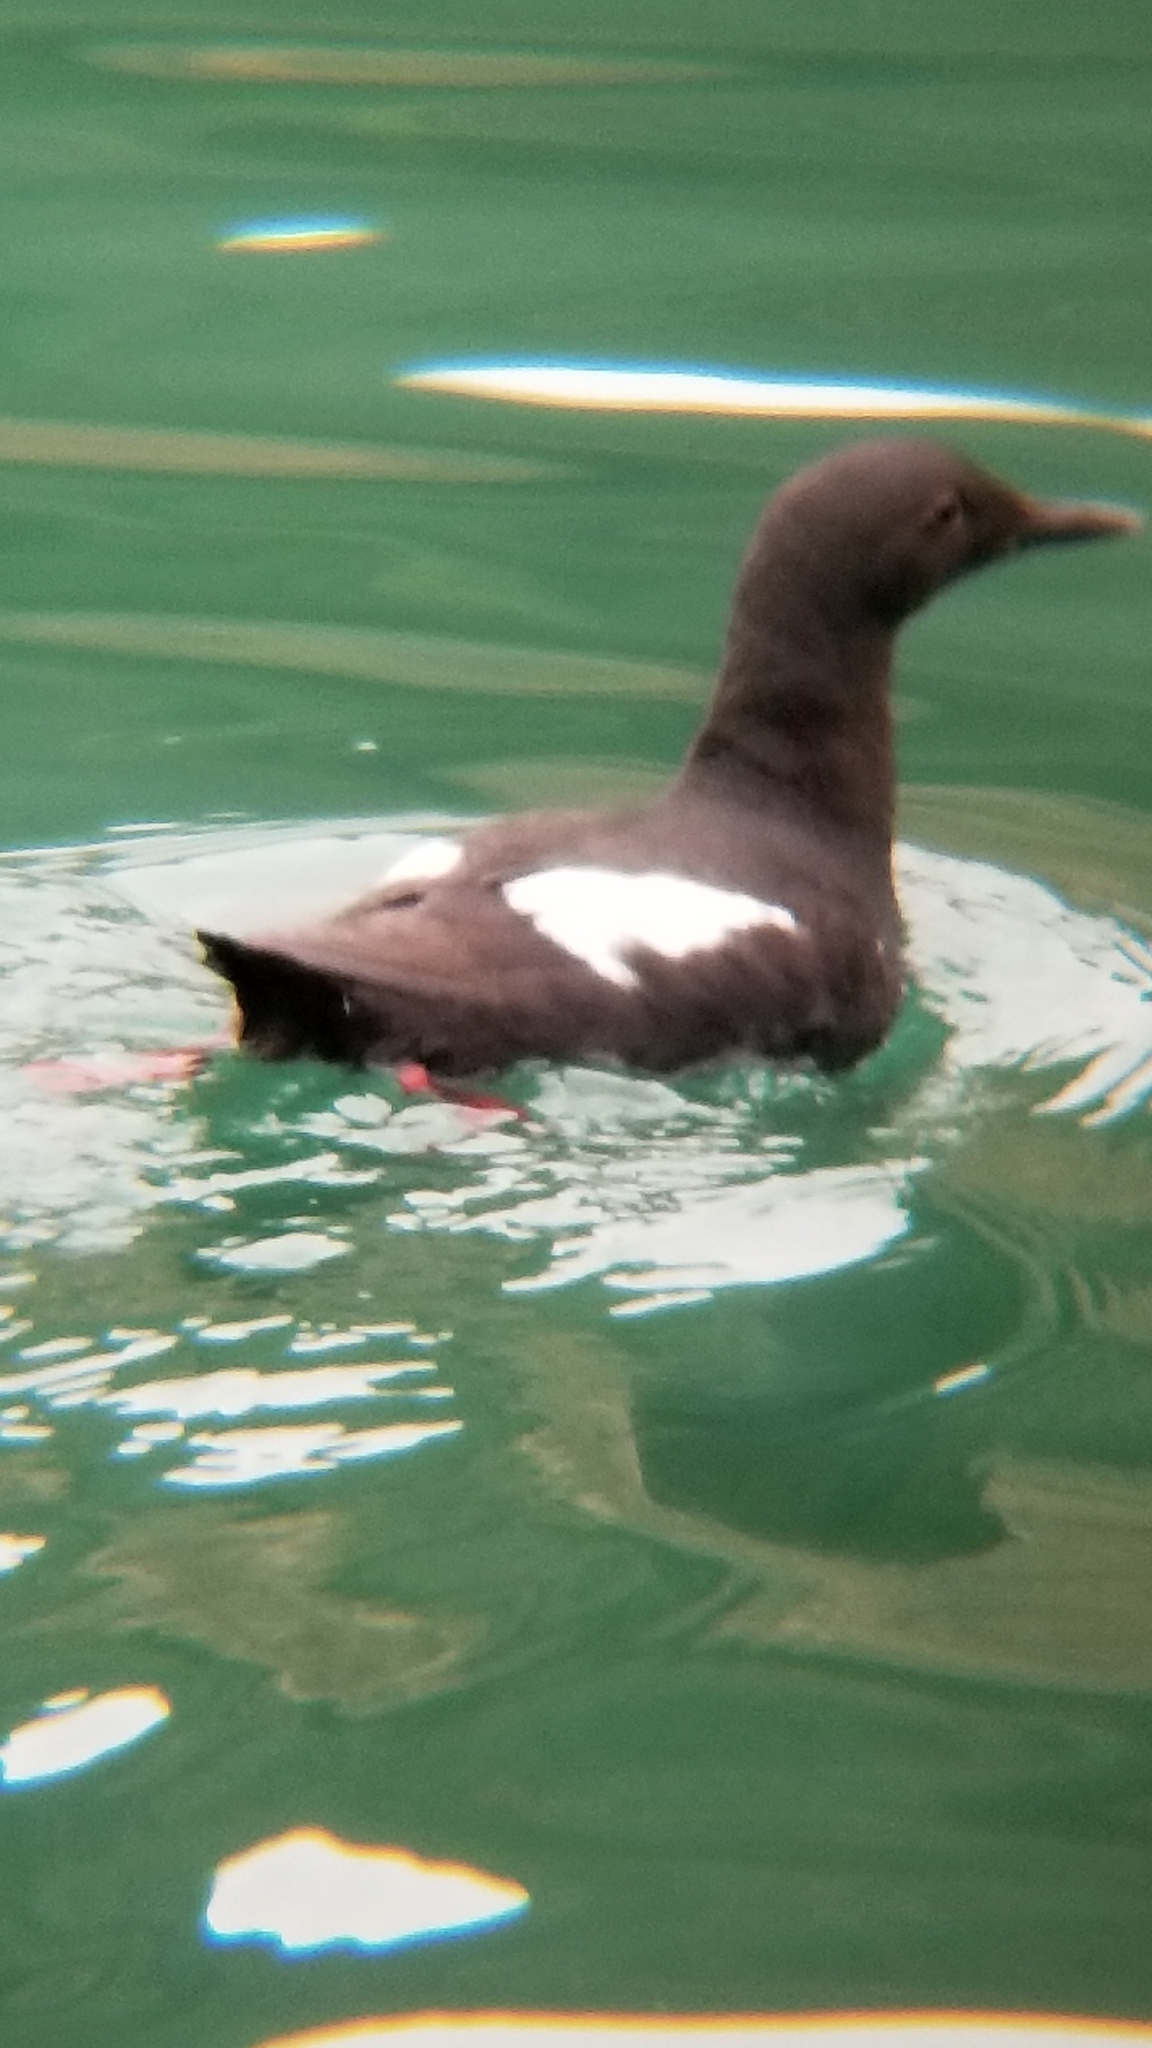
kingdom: Animalia
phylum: Chordata
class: Aves
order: Charadriiformes
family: Alcidae
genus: Cepphus
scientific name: Cepphus columba
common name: Pigeon guillemot
